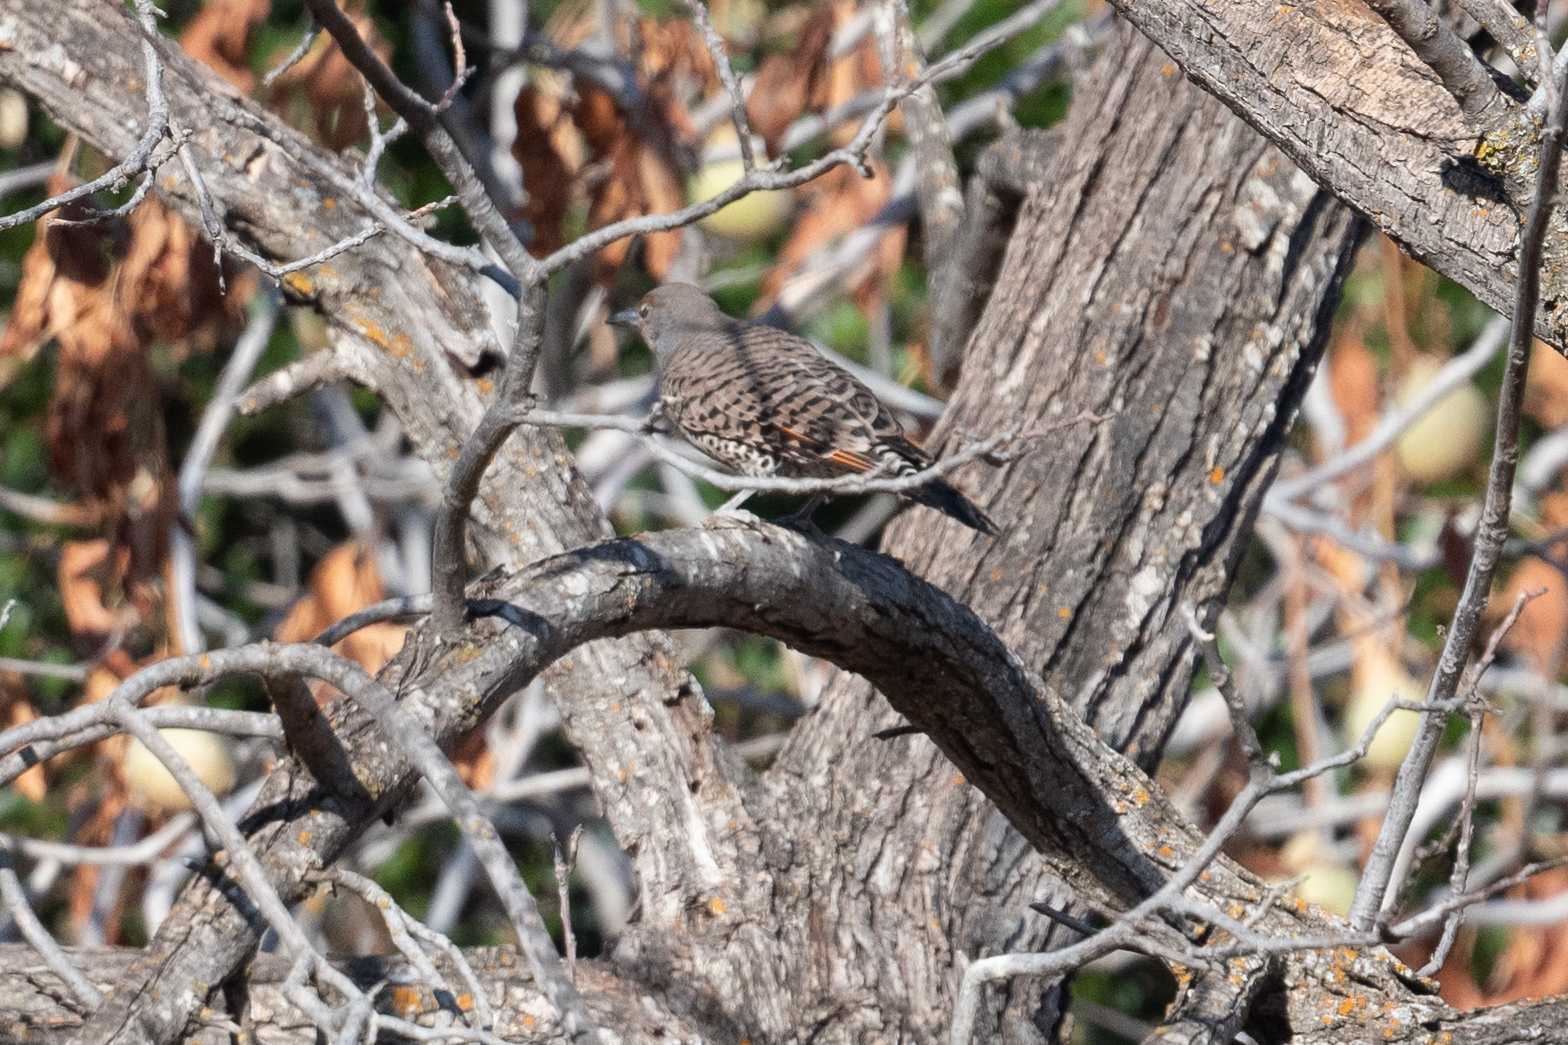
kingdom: Animalia
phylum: Chordata
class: Aves
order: Piciformes
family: Picidae
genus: Colaptes
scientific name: Colaptes auratus
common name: Northern flicker
